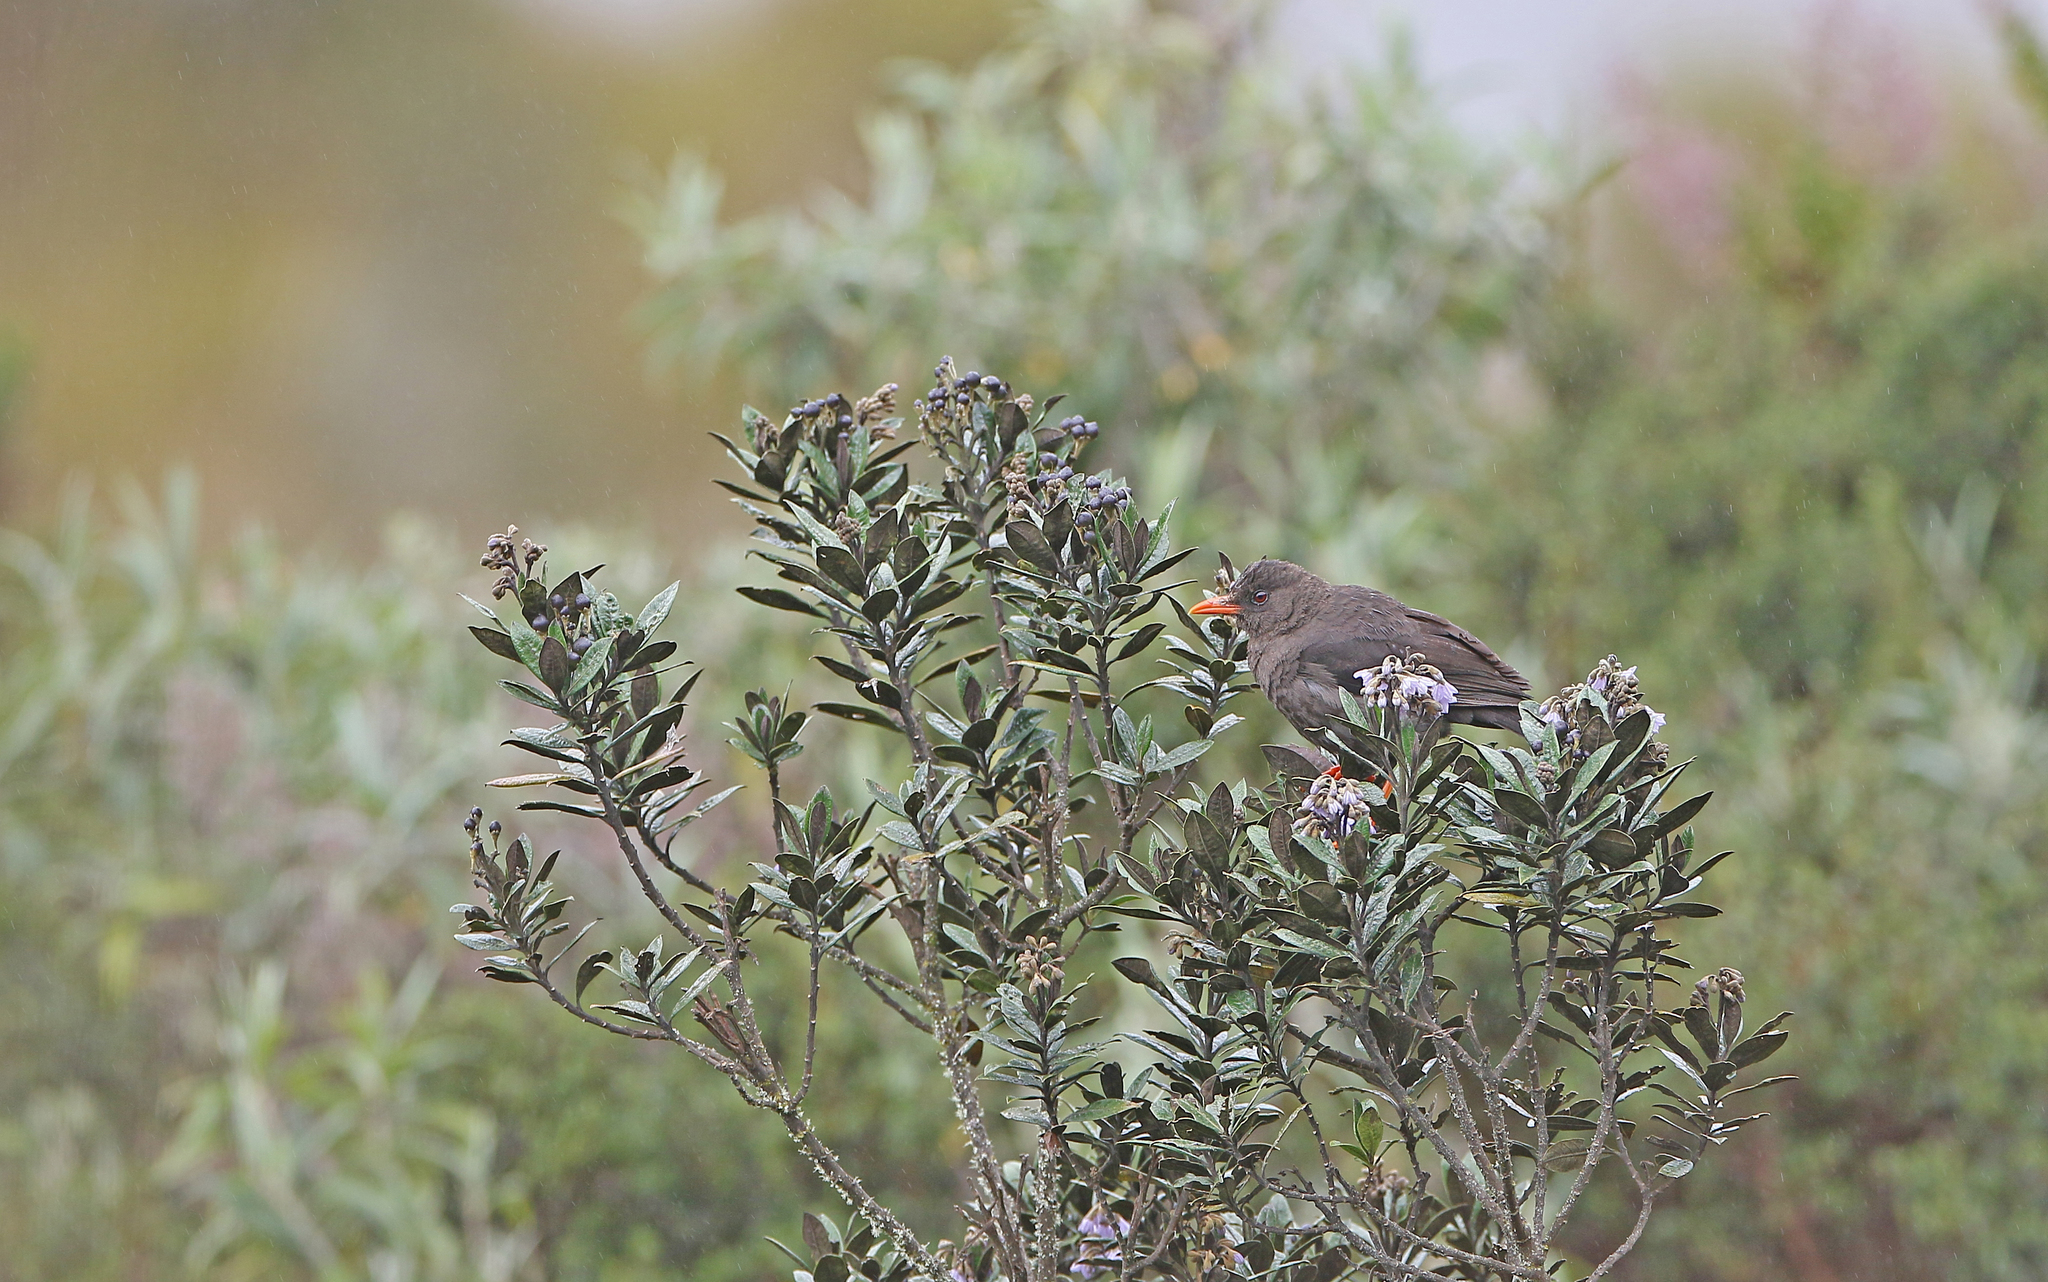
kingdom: Animalia
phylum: Chordata
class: Aves
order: Passeriformes
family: Turdidae
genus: Turdus
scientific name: Turdus fuscater
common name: Great thrush
